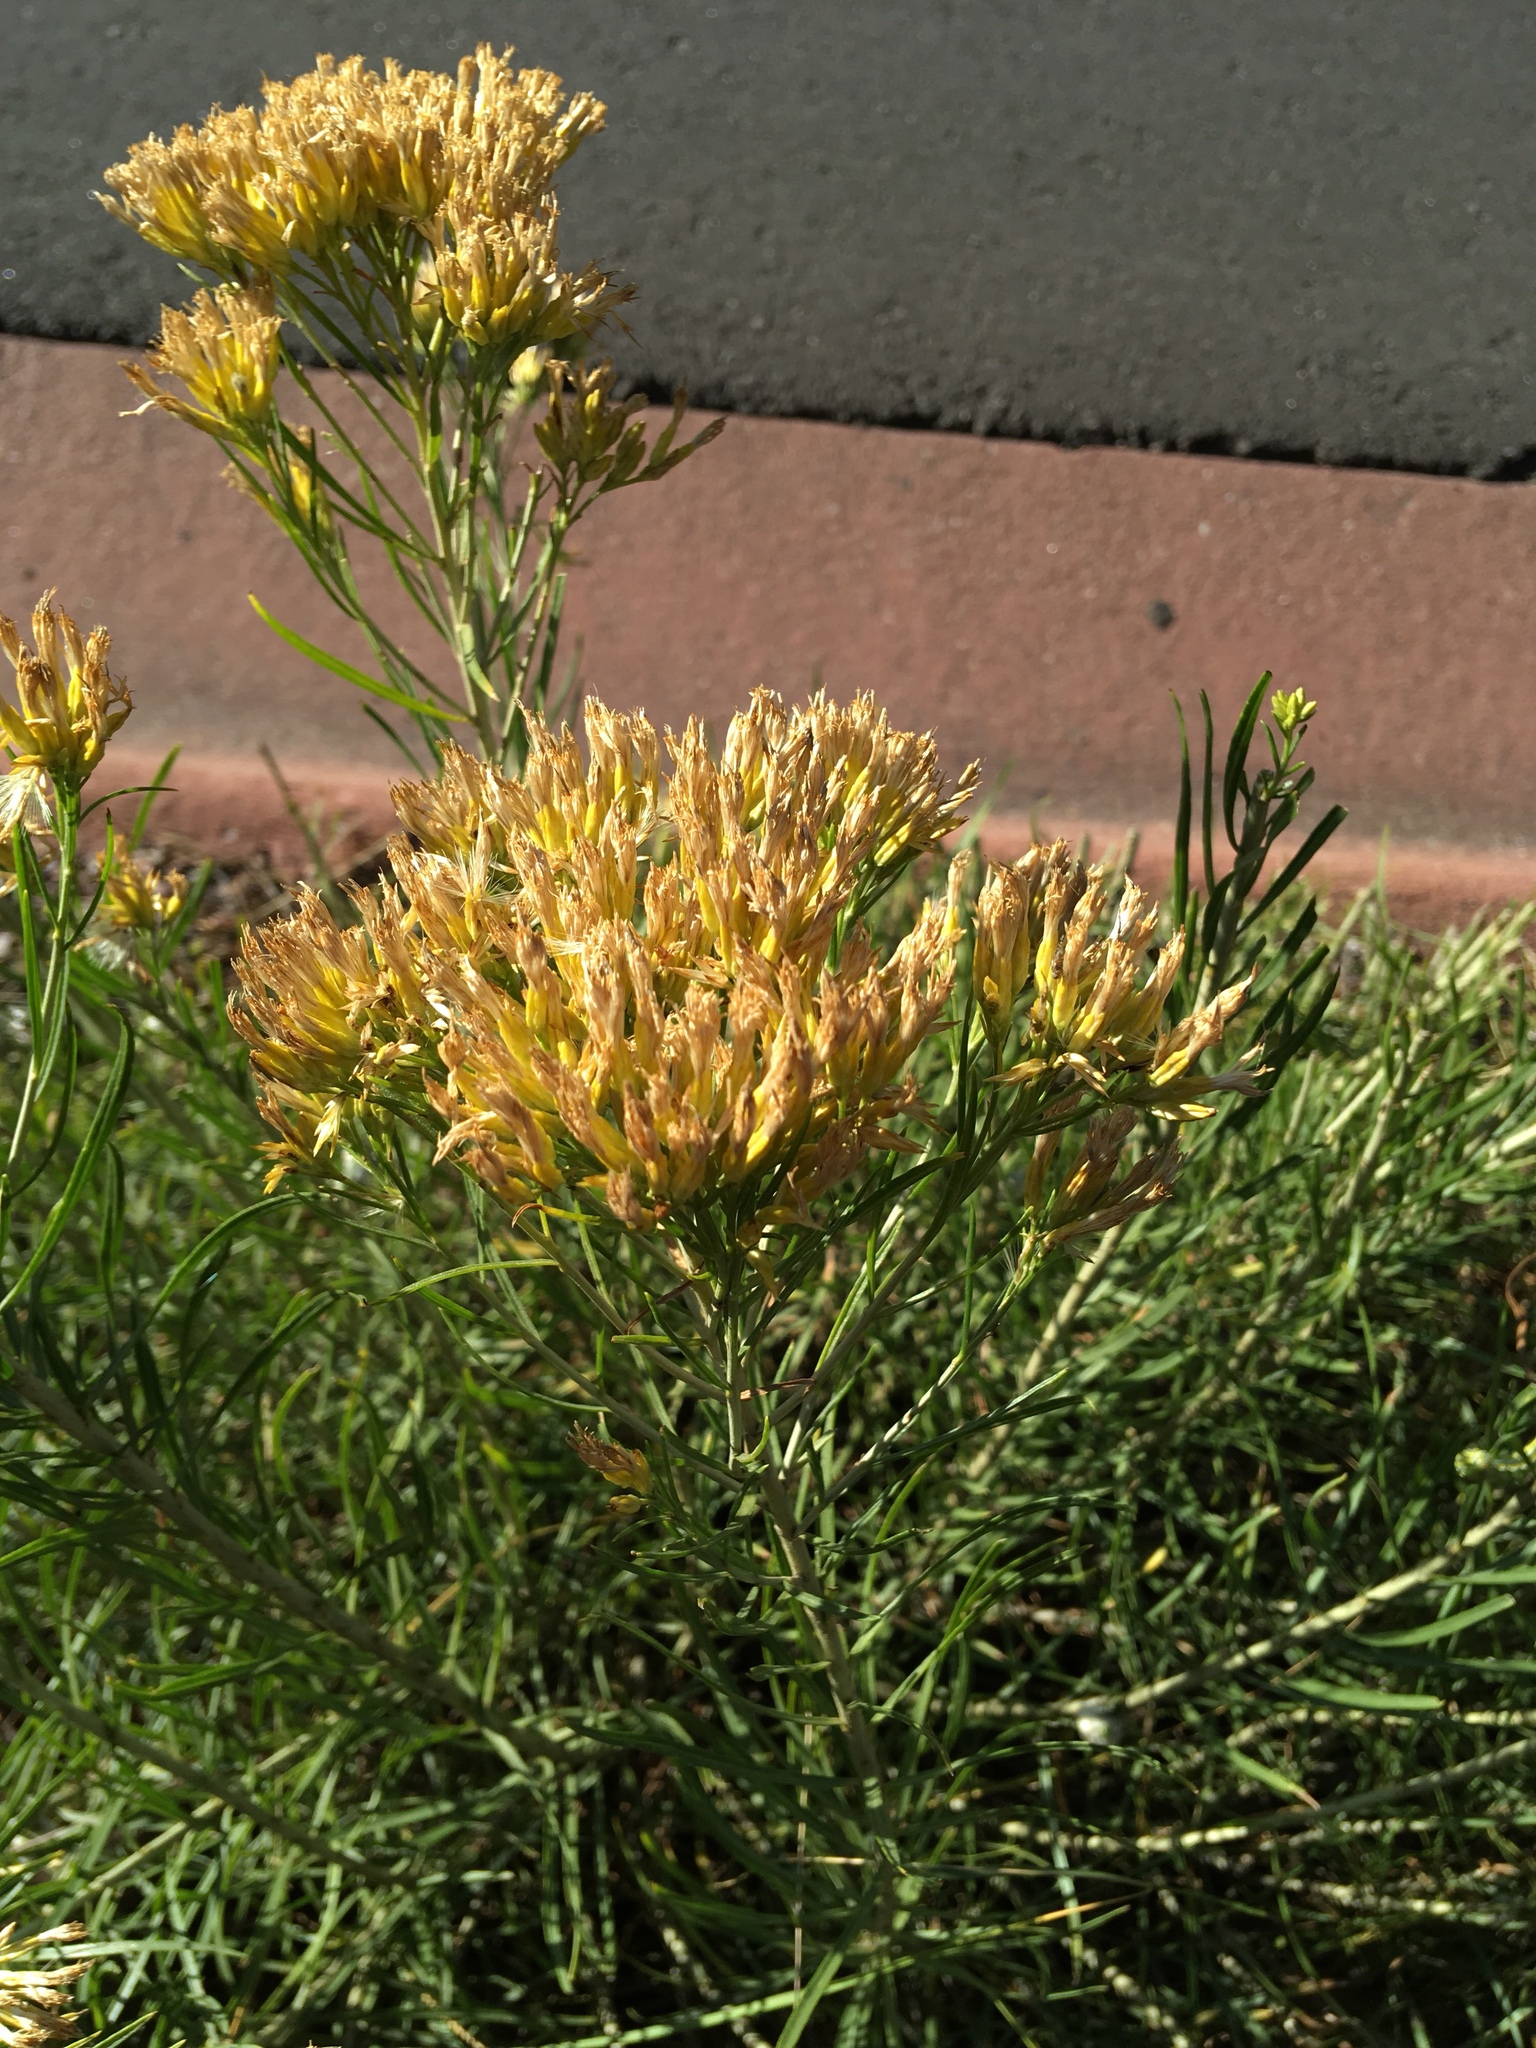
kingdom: Plantae
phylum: Tracheophyta
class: Magnoliopsida
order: Asterales
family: Asteraceae
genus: Ericameria
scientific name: Ericameria nauseosa
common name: Rubber rabbitbrush
